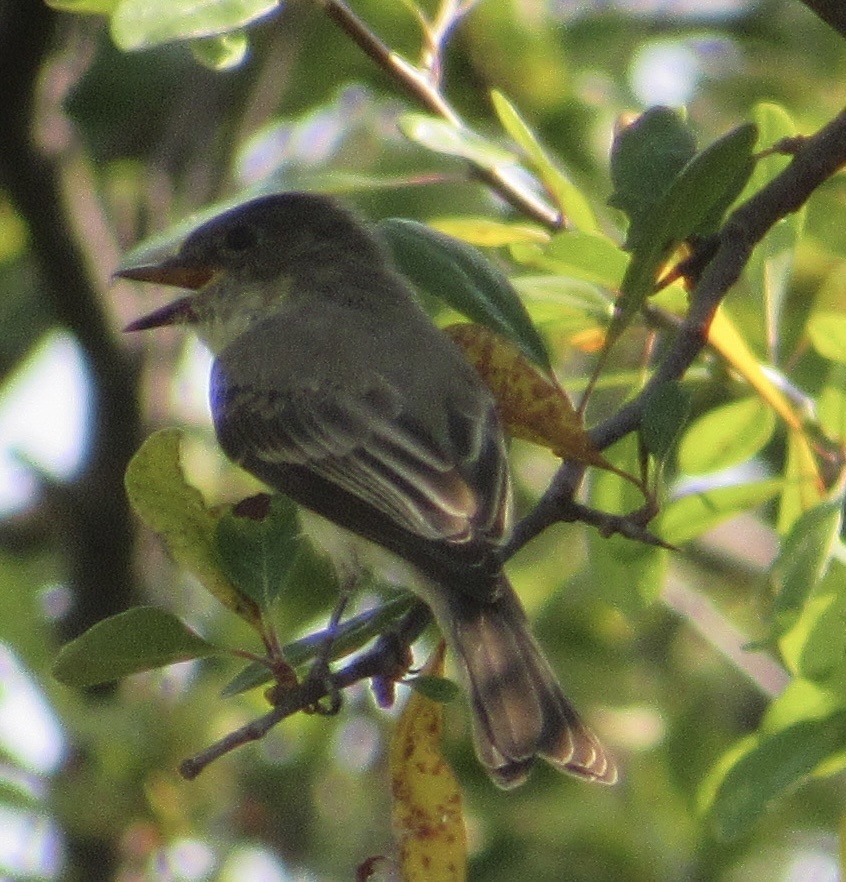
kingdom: Animalia
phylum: Chordata
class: Aves
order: Passeriformes
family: Tyrannidae
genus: Sayornis
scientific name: Sayornis phoebe
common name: Eastern phoebe
